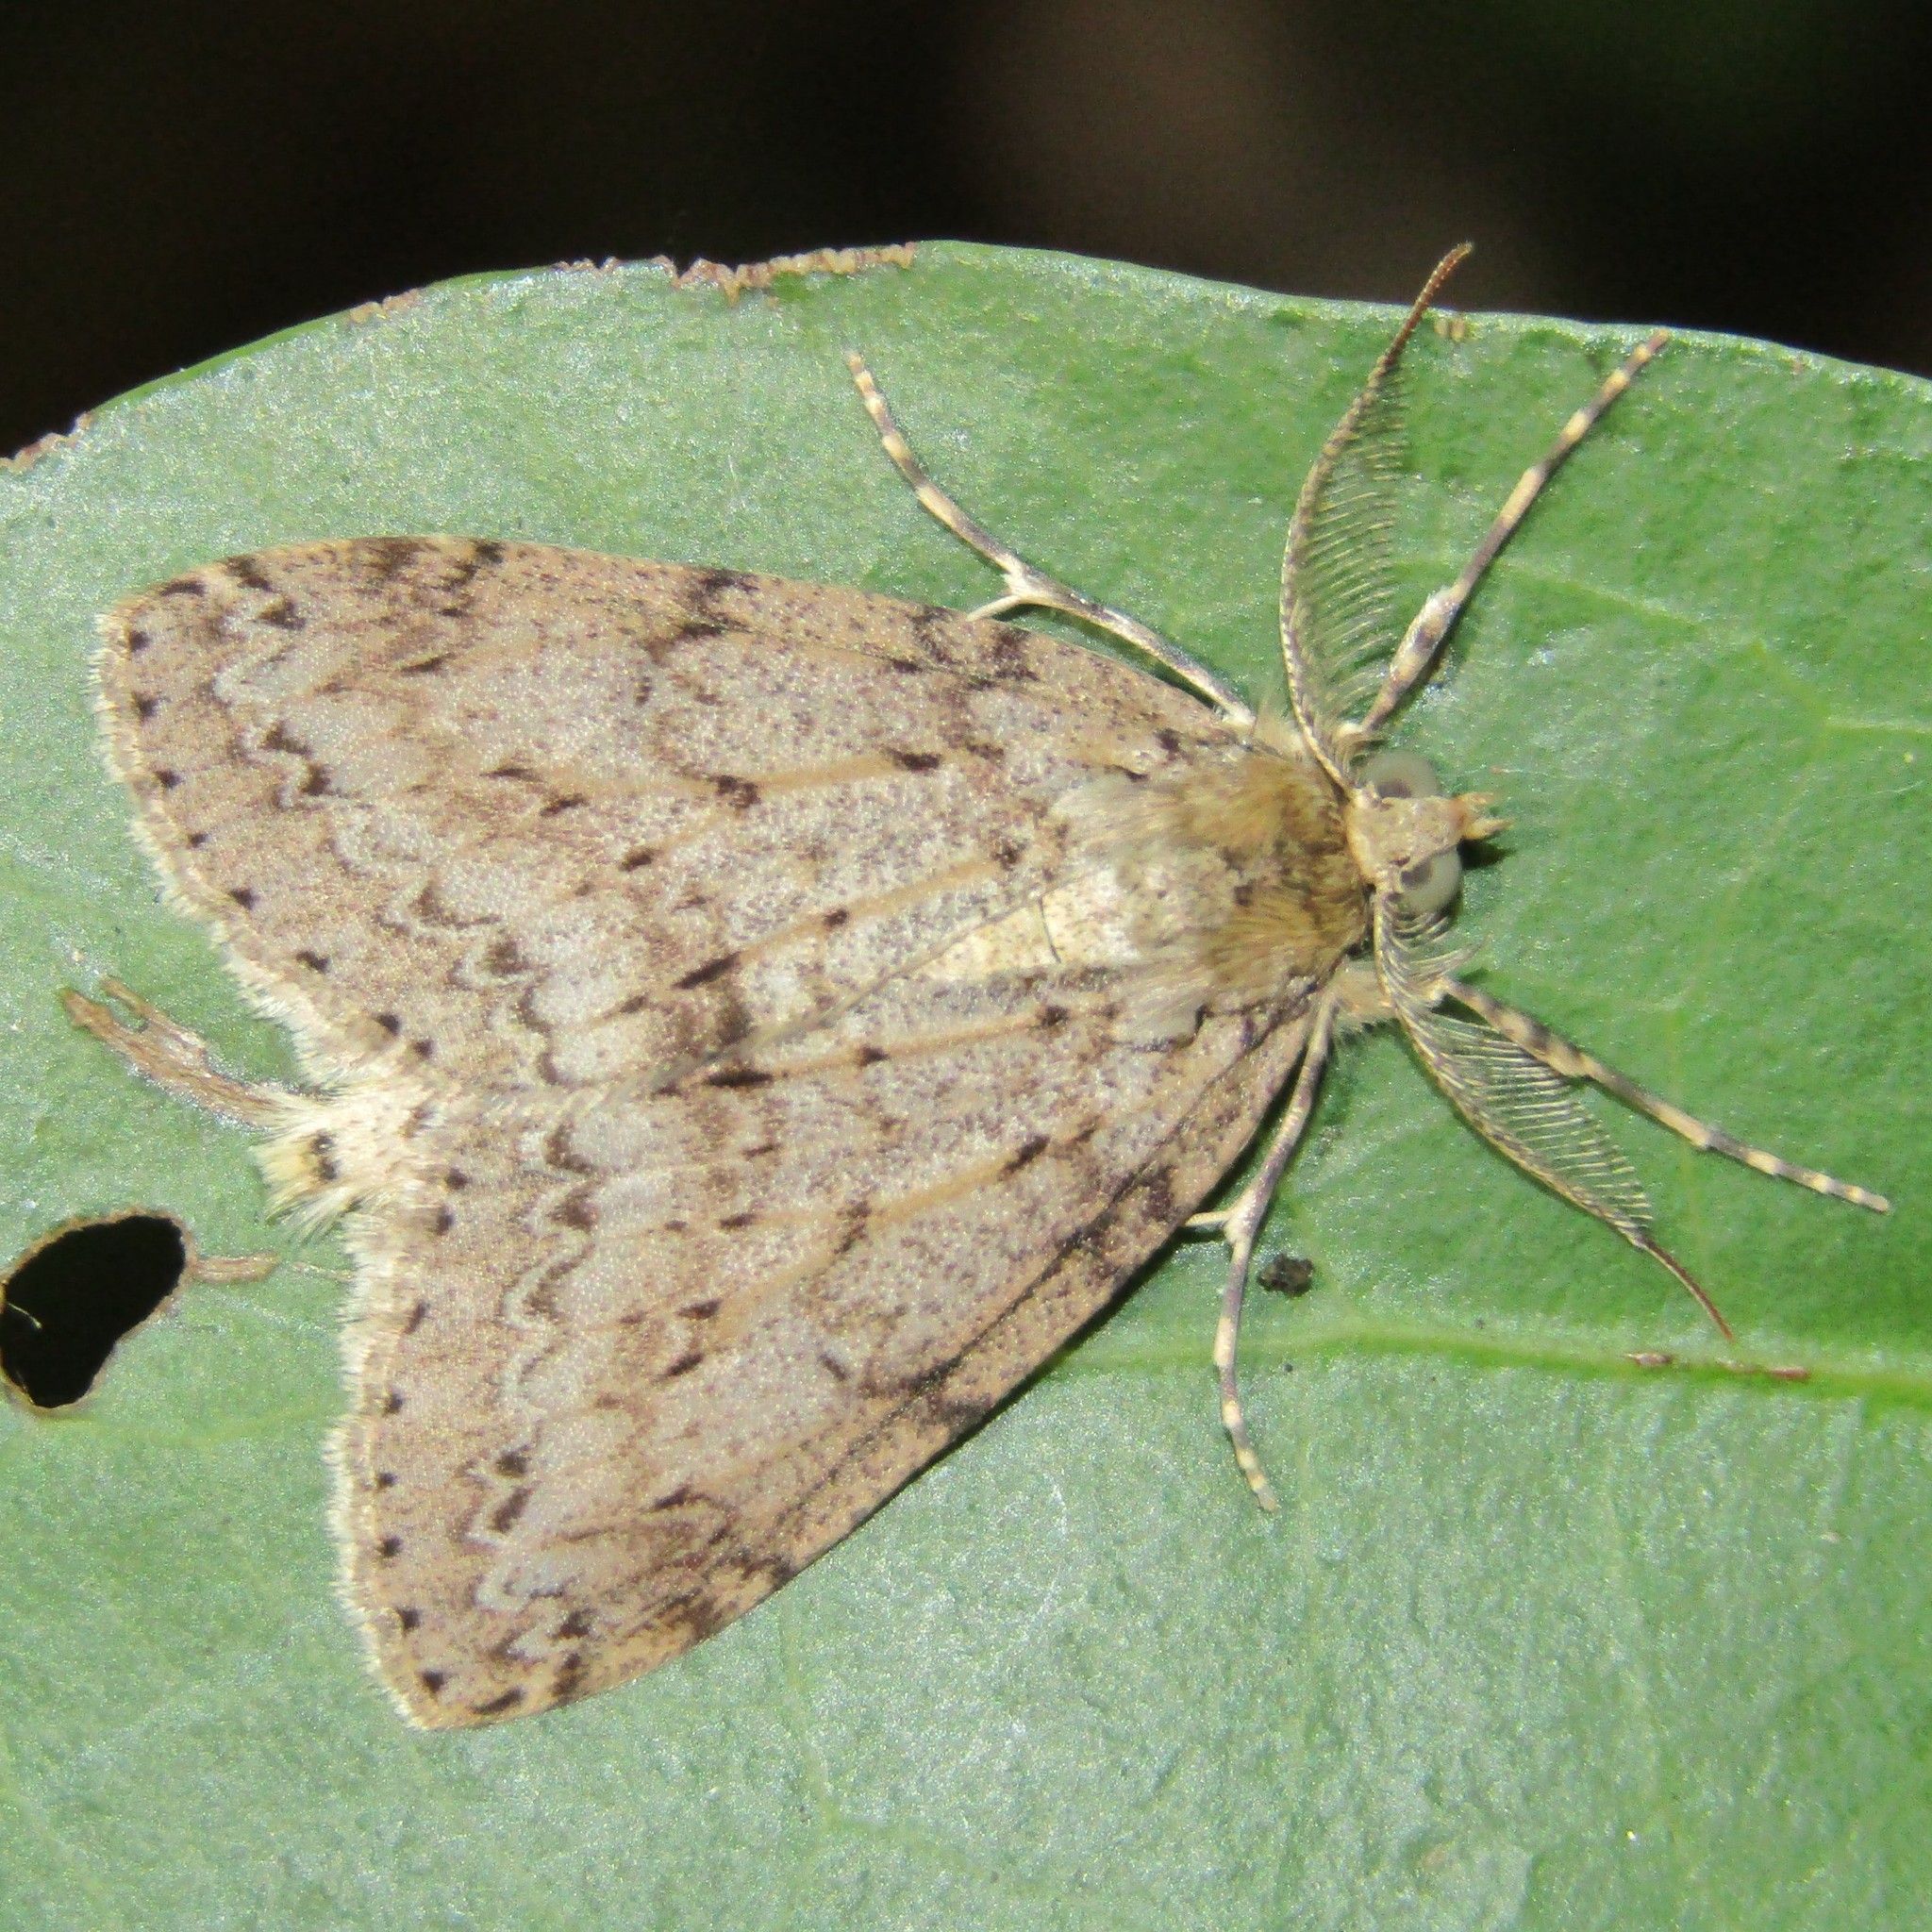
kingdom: Animalia
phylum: Arthropoda
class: Insecta
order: Lepidoptera
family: Geometridae
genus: Pseudocoremia
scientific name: Pseudocoremia fenerata
